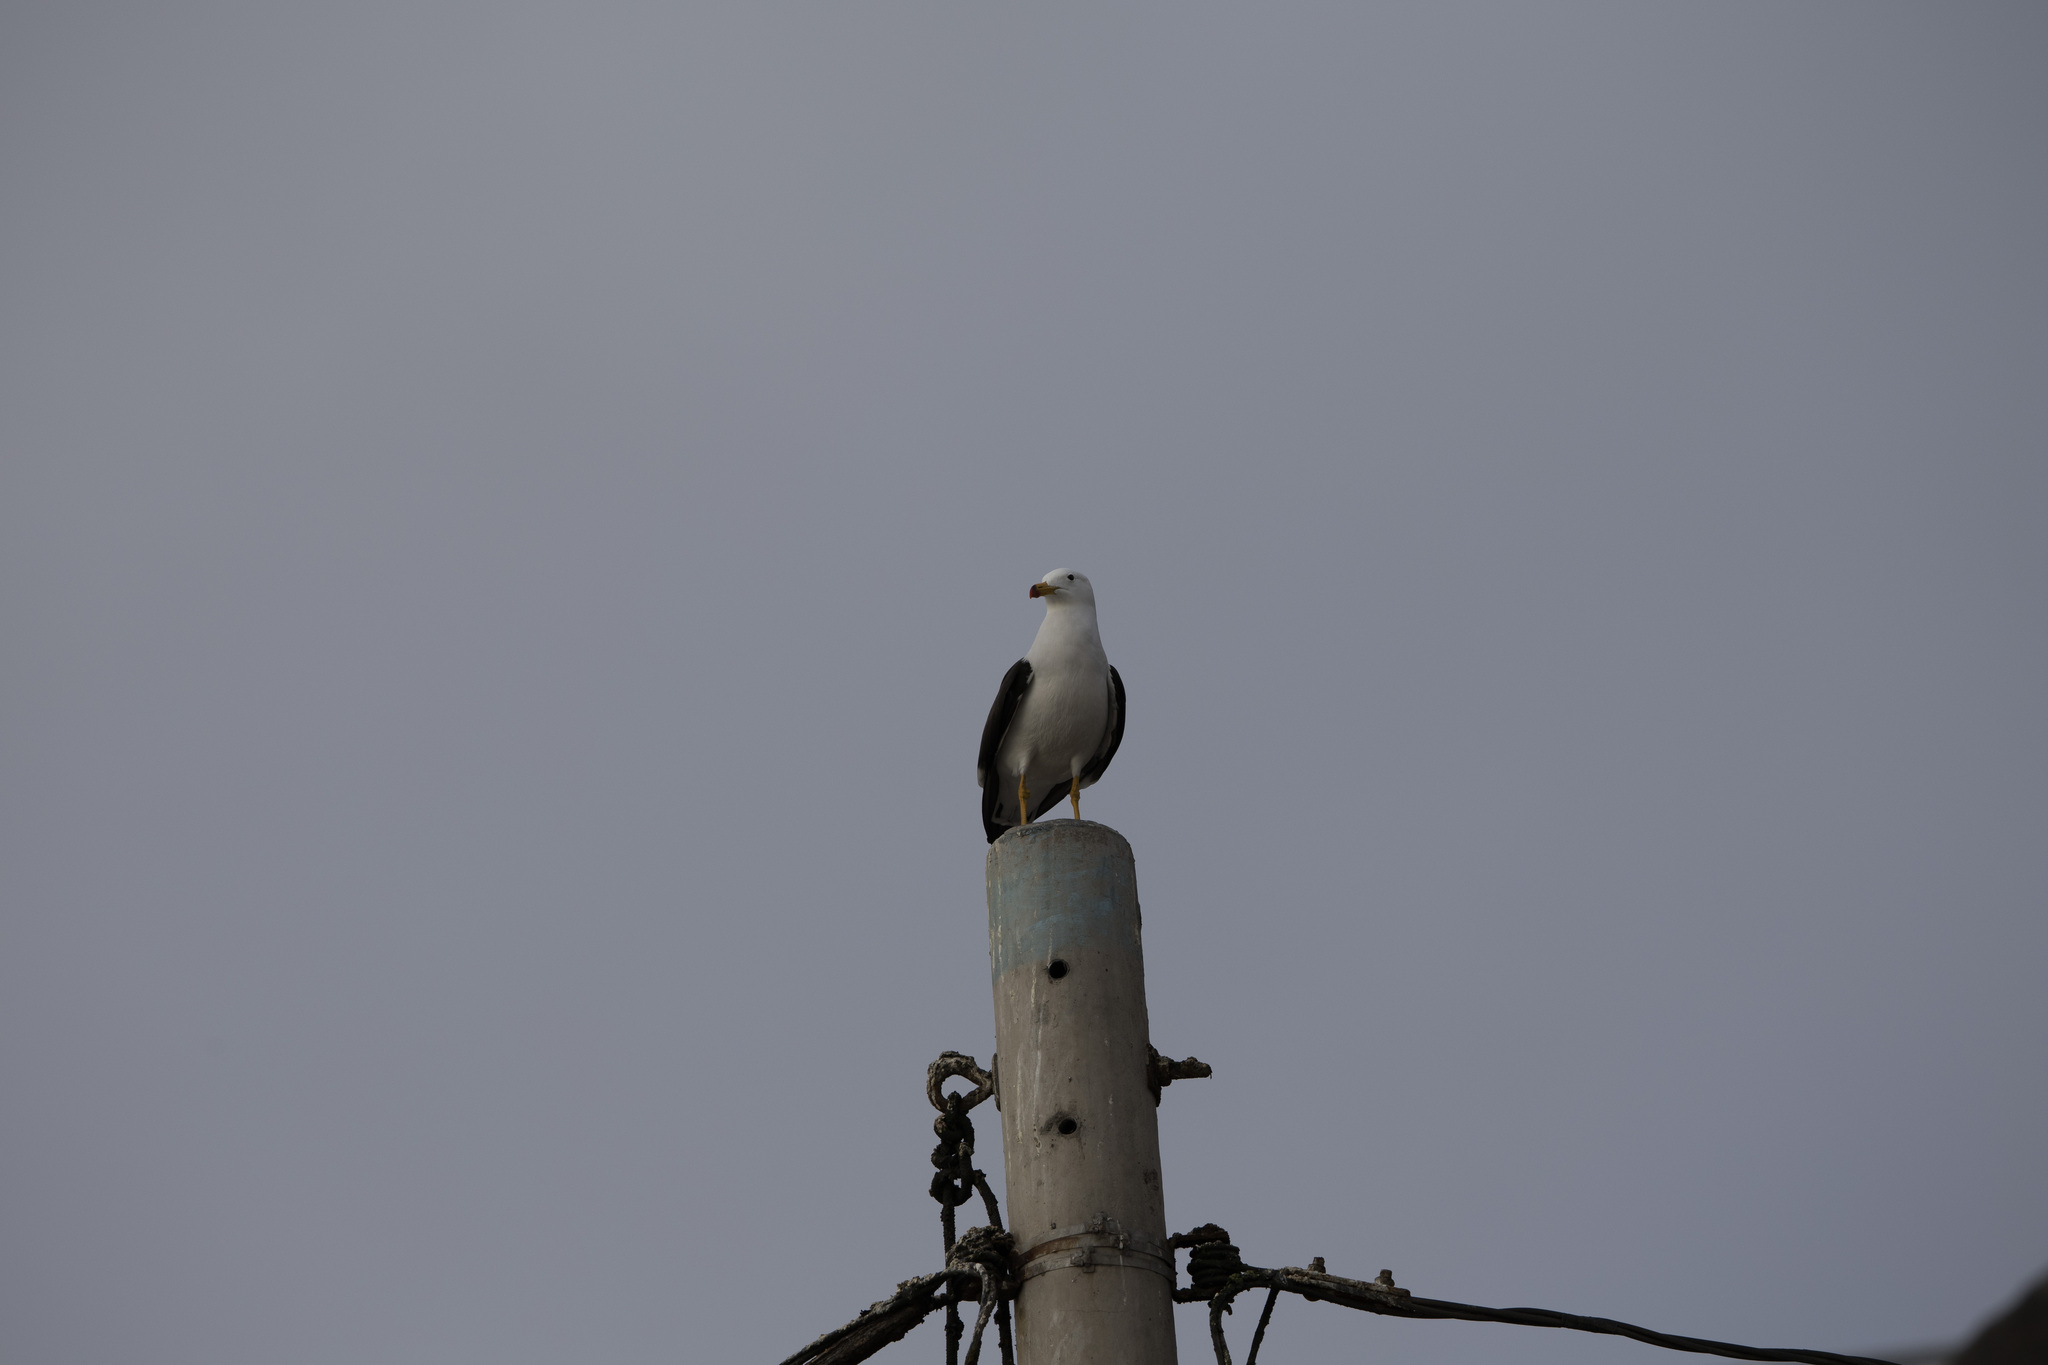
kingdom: Animalia
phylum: Chordata
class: Aves
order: Charadriiformes
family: Laridae
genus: Larus
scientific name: Larus belcheri
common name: Belcher's gull
